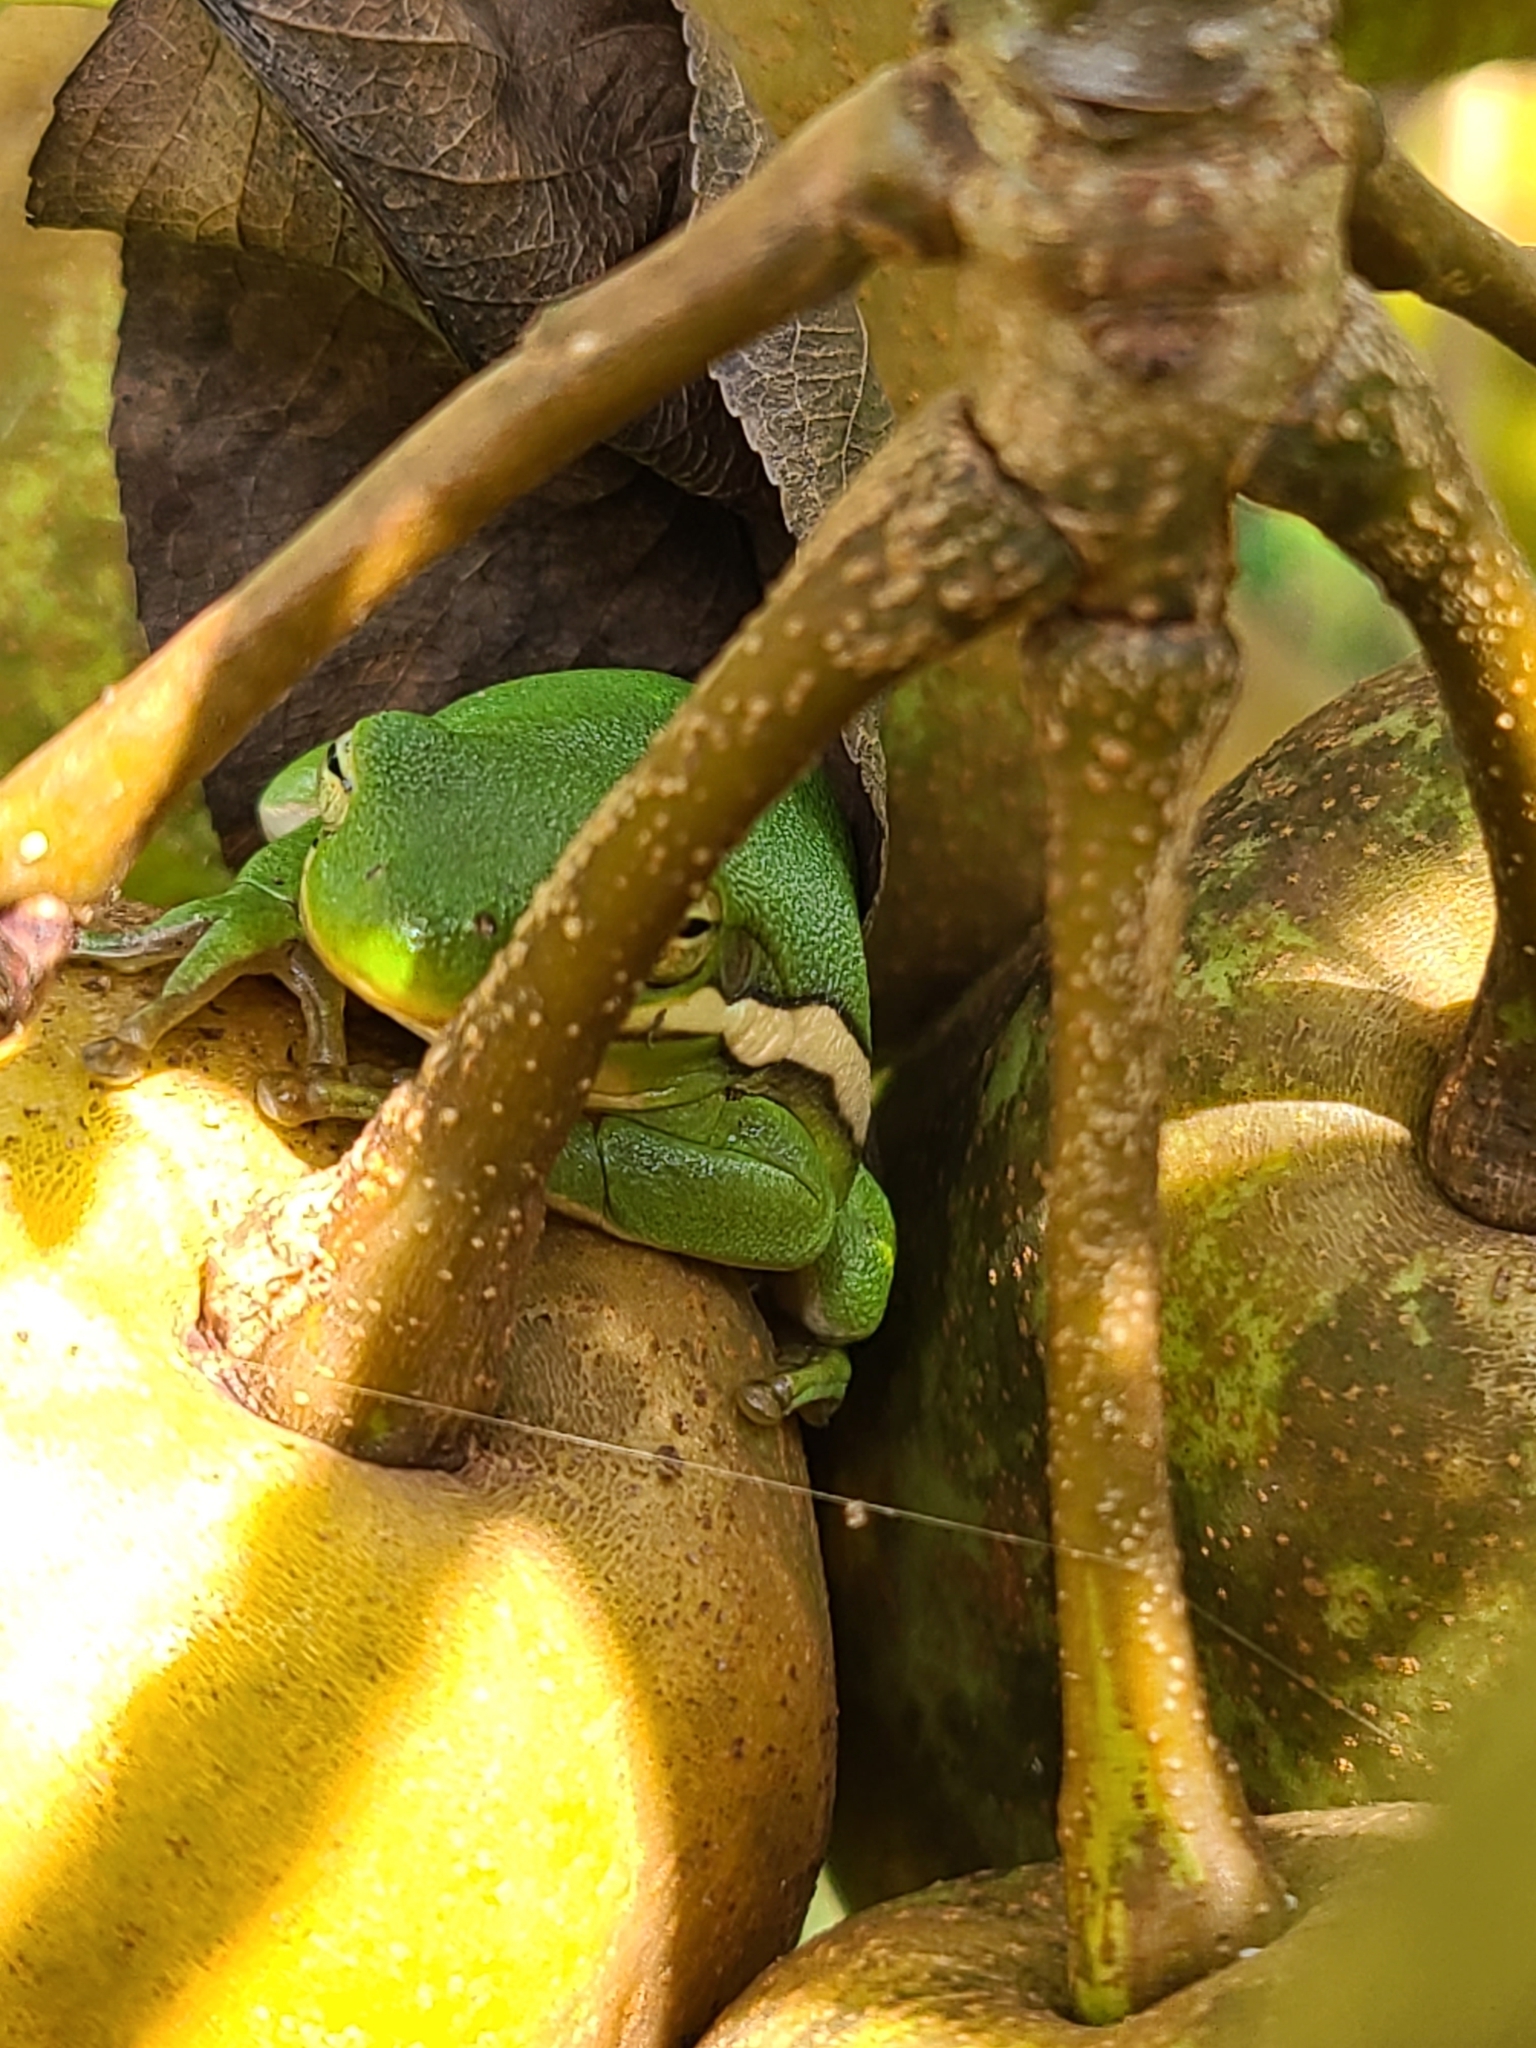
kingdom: Animalia
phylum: Chordata
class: Amphibia
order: Anura
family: Hylidae
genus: Dryophytes
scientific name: Dryophytes cinereus
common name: Green treefrog
